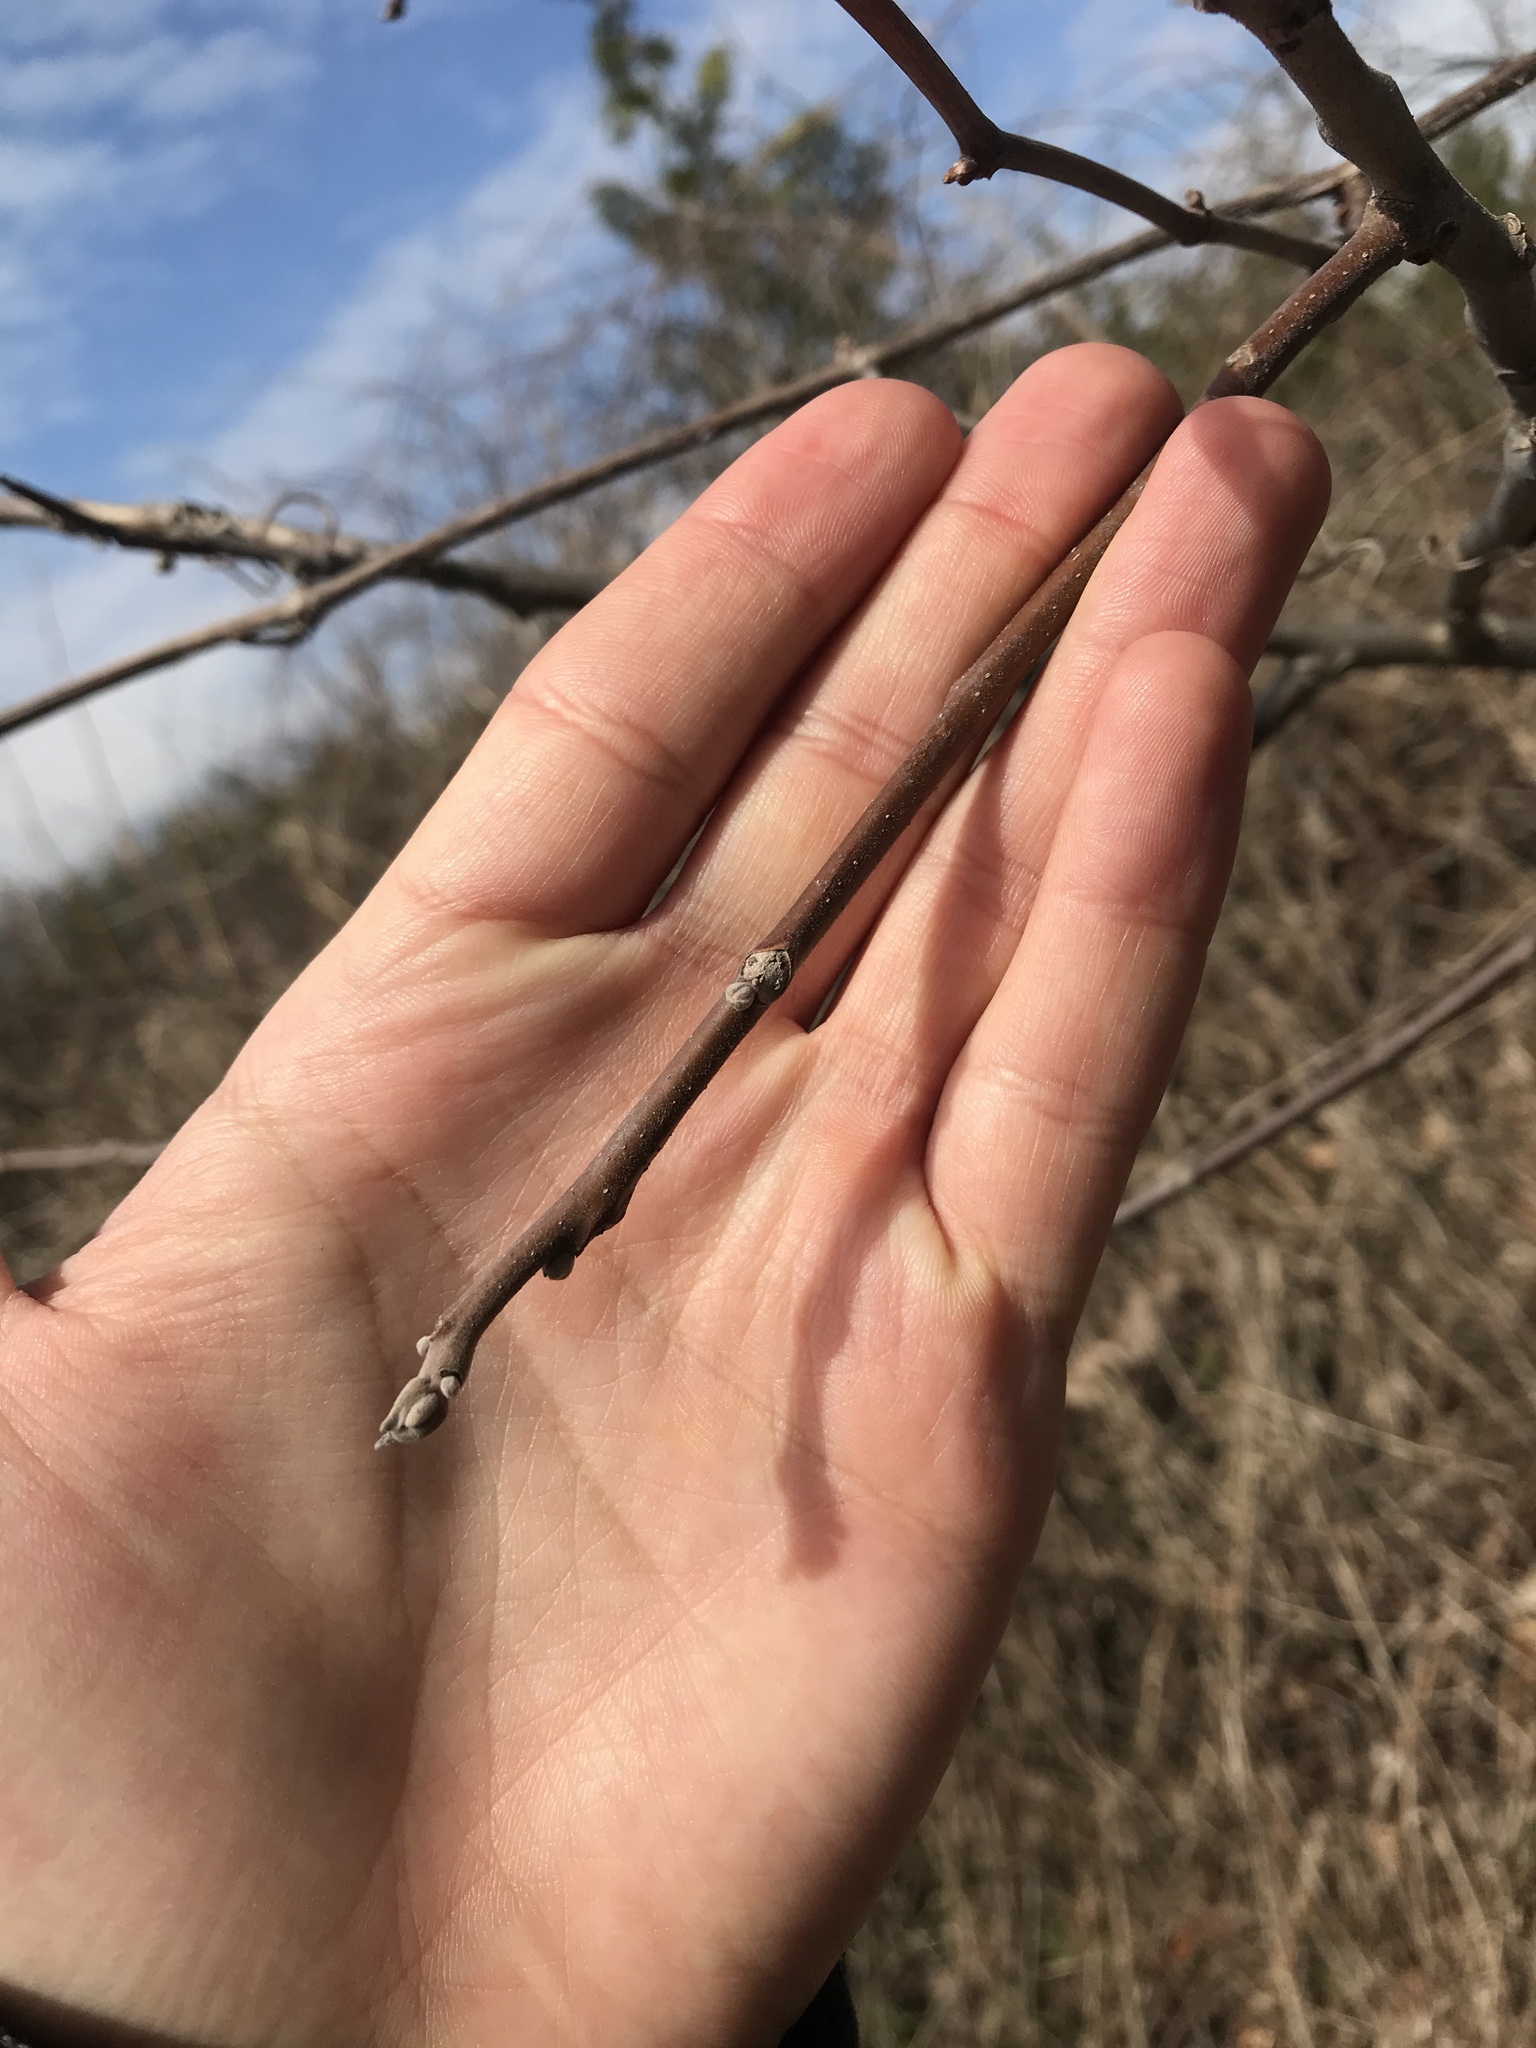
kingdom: Plantae
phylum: Tracheophyta
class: Magnoliopsida
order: Fagales
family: Juglandaceae
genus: Juglans
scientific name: Juglans nigra
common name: Black walnut
